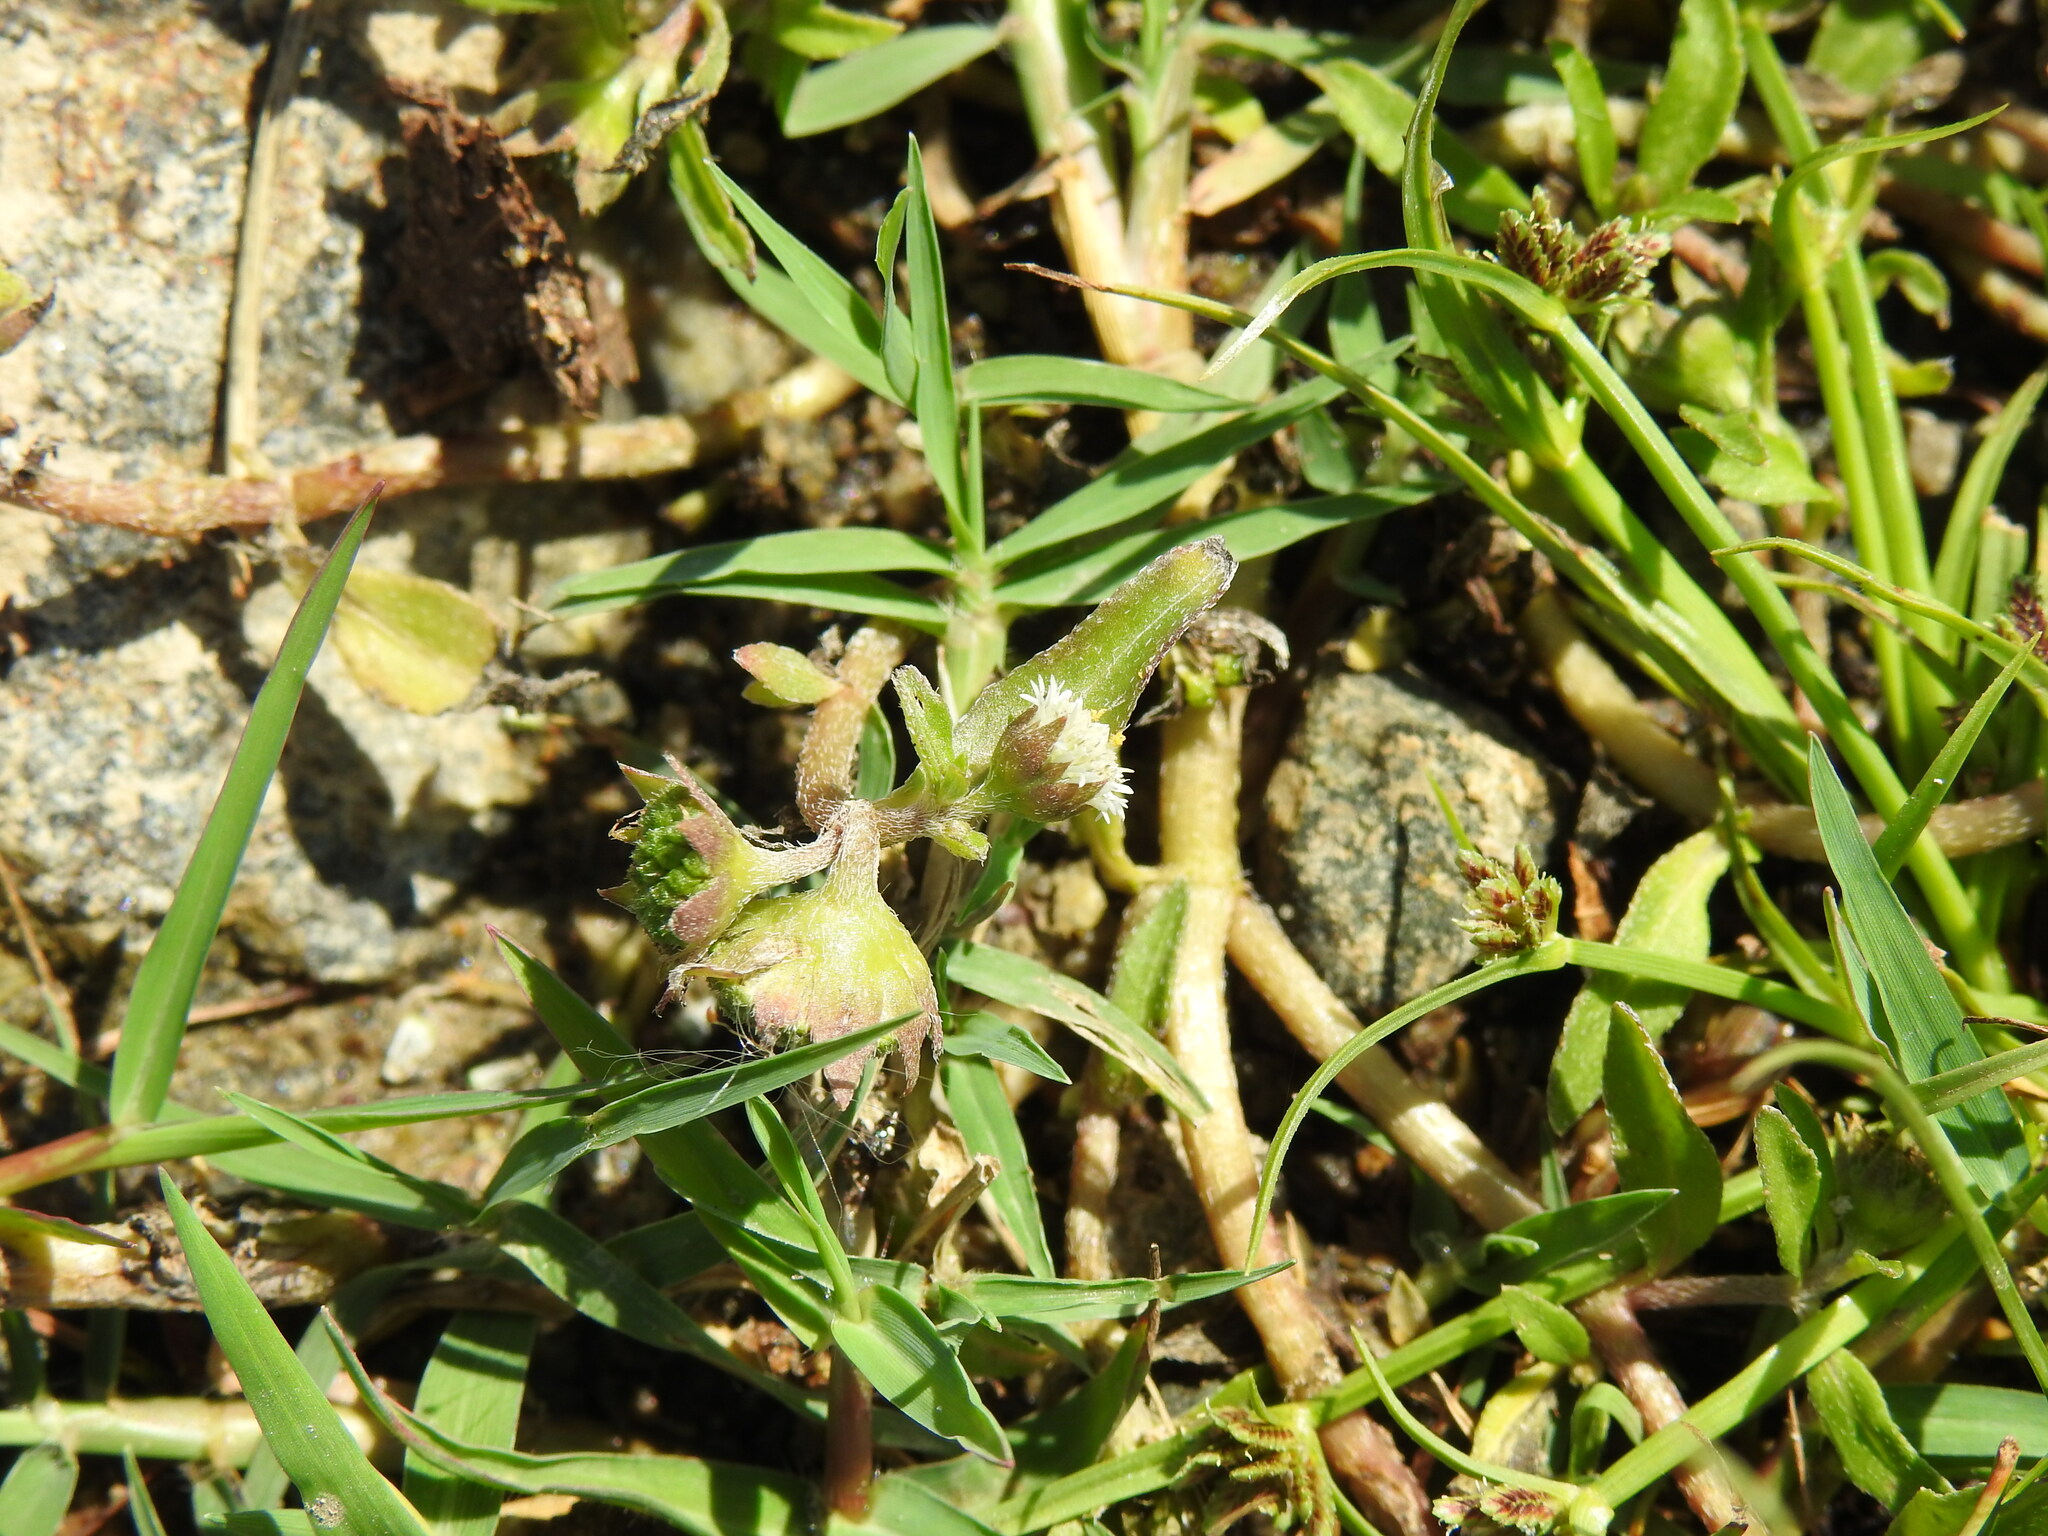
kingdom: Plantae
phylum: Tracheophyta
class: Magnoliopsida
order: Asterales
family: Asteraceae
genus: Eclipta
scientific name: Eclipta prostrata
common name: False daisy
